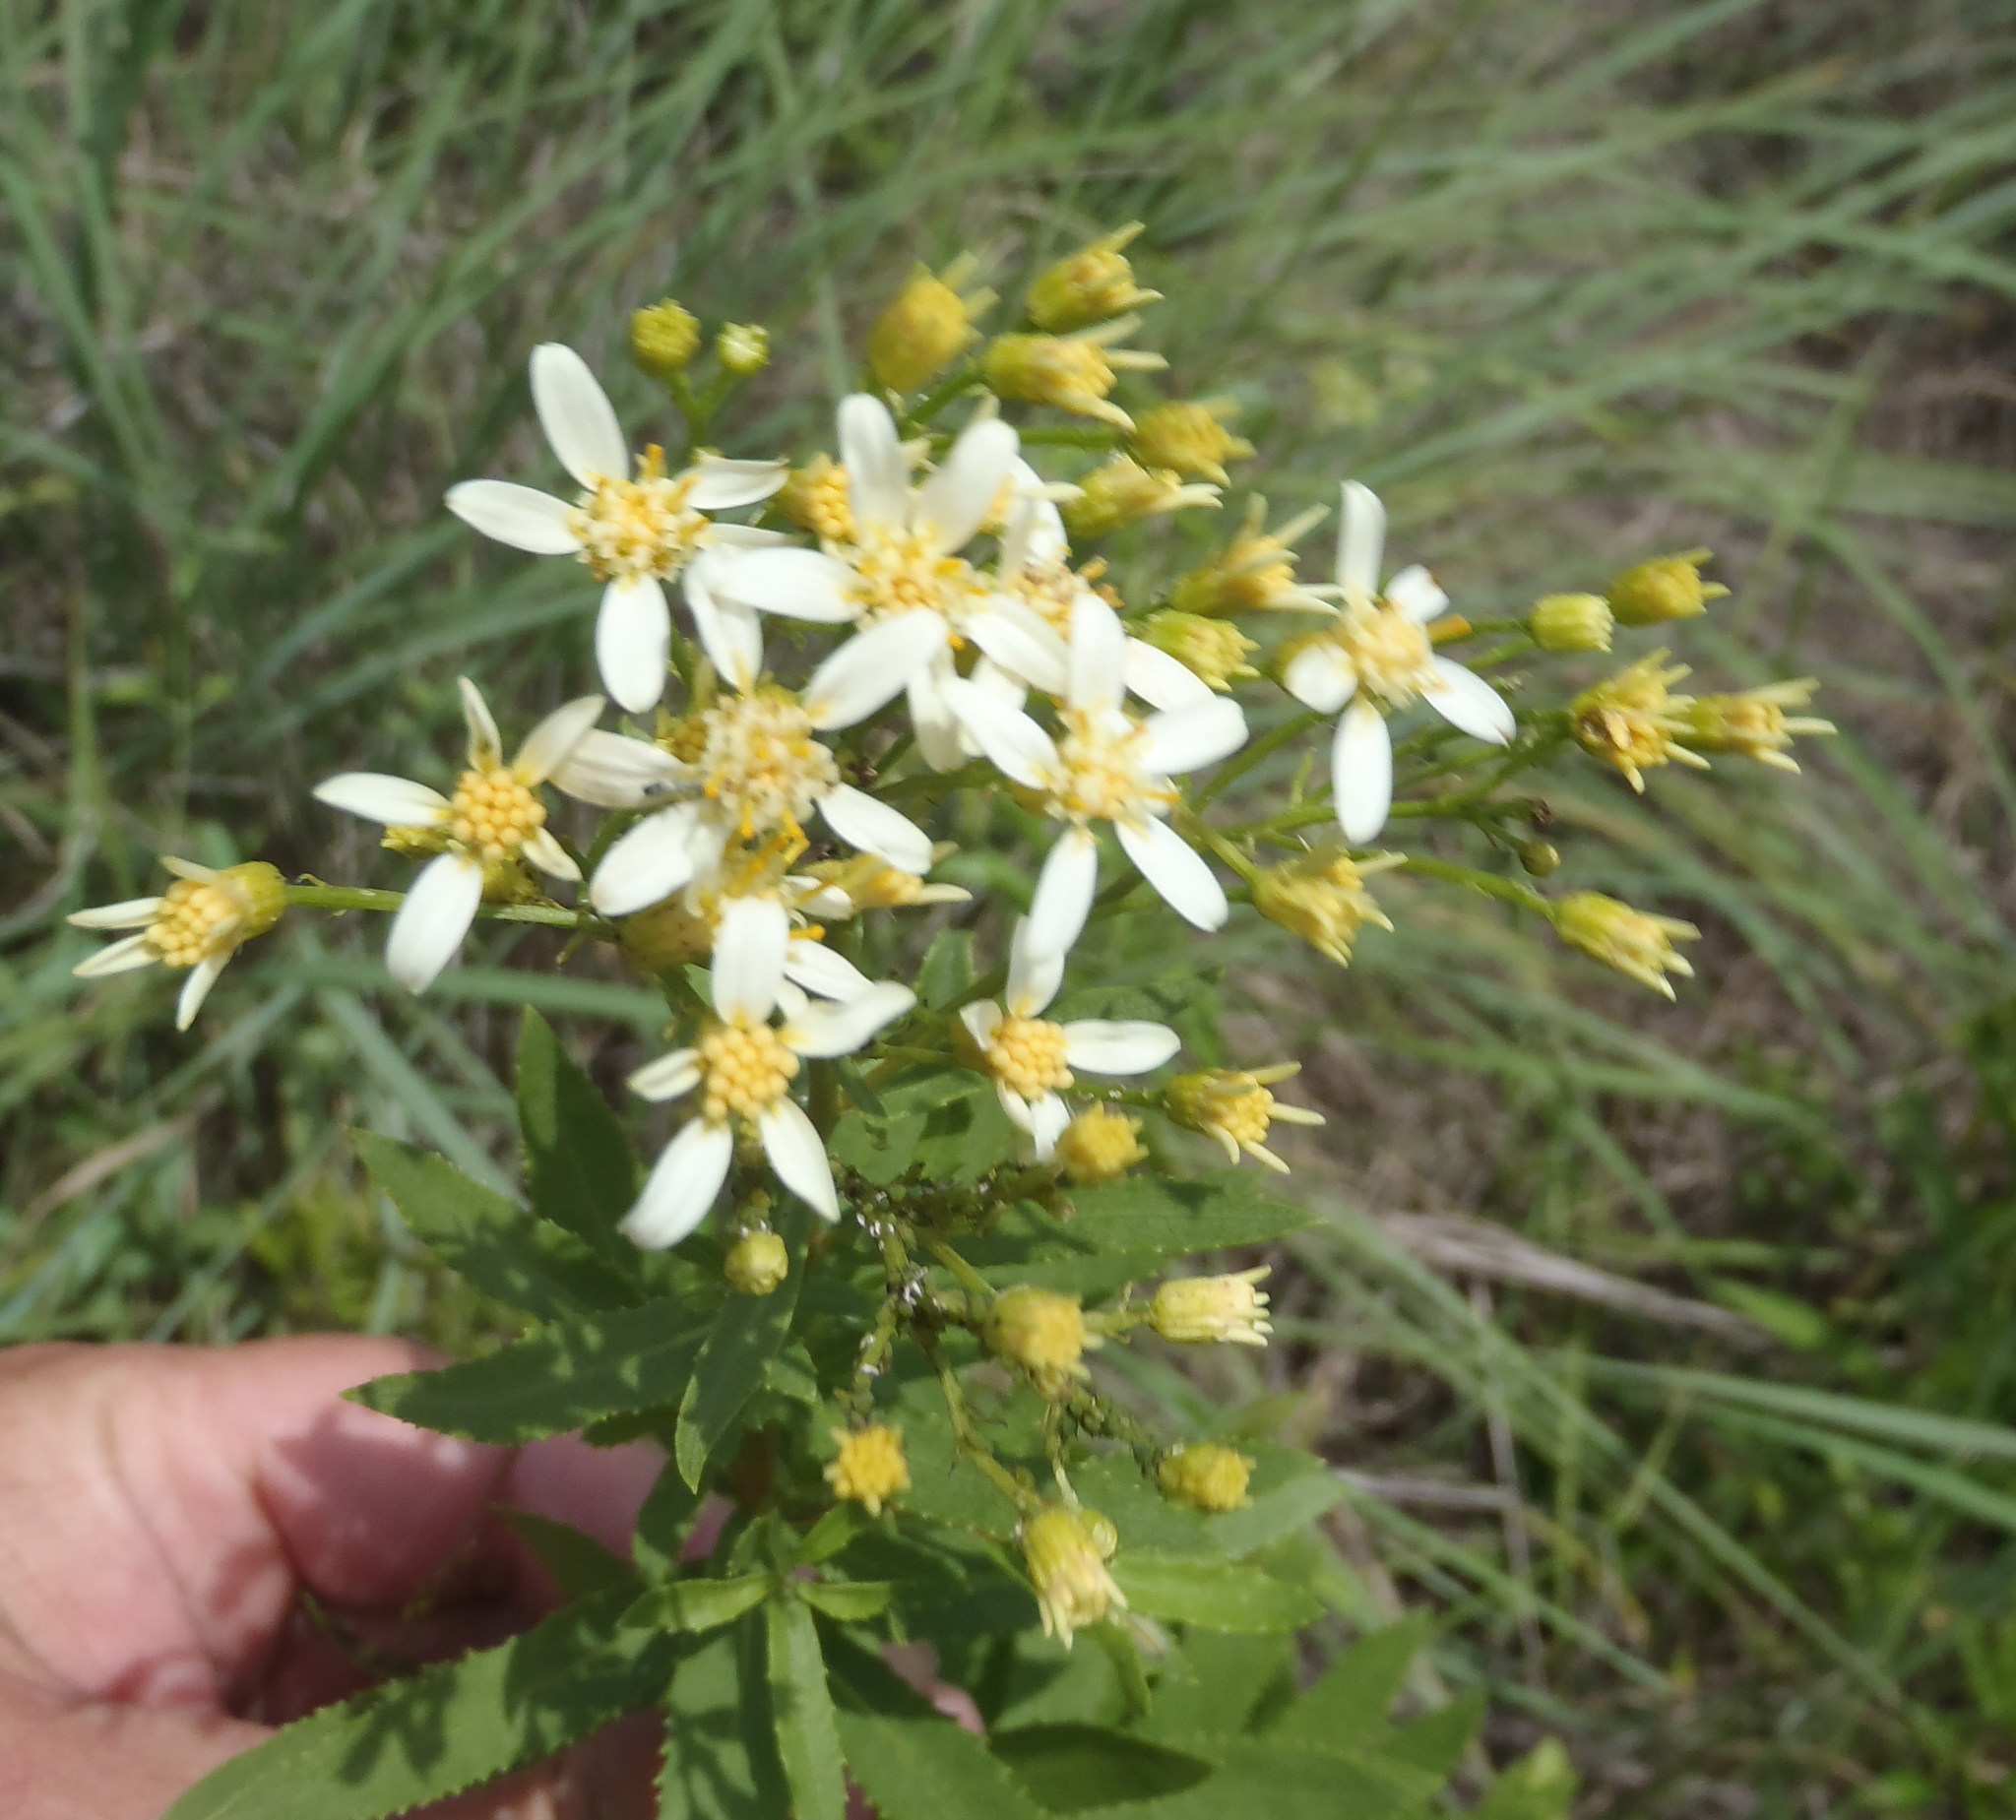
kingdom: Plantae
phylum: Tracheophyta
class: Magnoliopsida
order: Asterales
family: Asteraceae
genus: Senecio
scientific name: Senecio pentactinus
